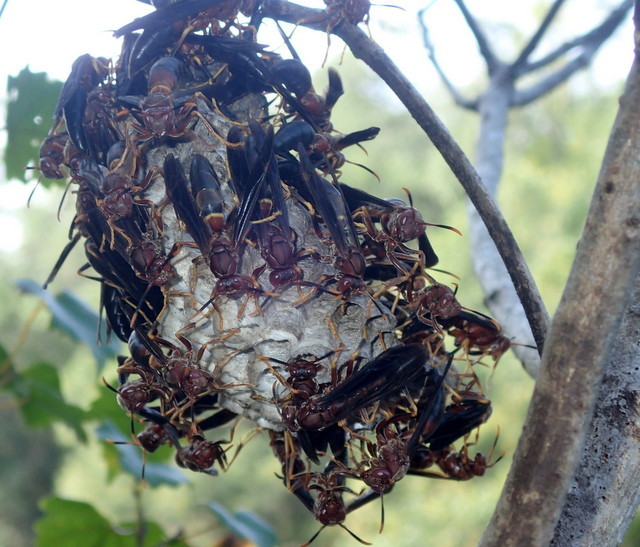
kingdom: Animalia
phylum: Arthropoda
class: Insecta
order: Hymenoptera
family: Eumenidae
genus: Polistes
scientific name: Polistes annularis
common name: Ringed paper wasp
